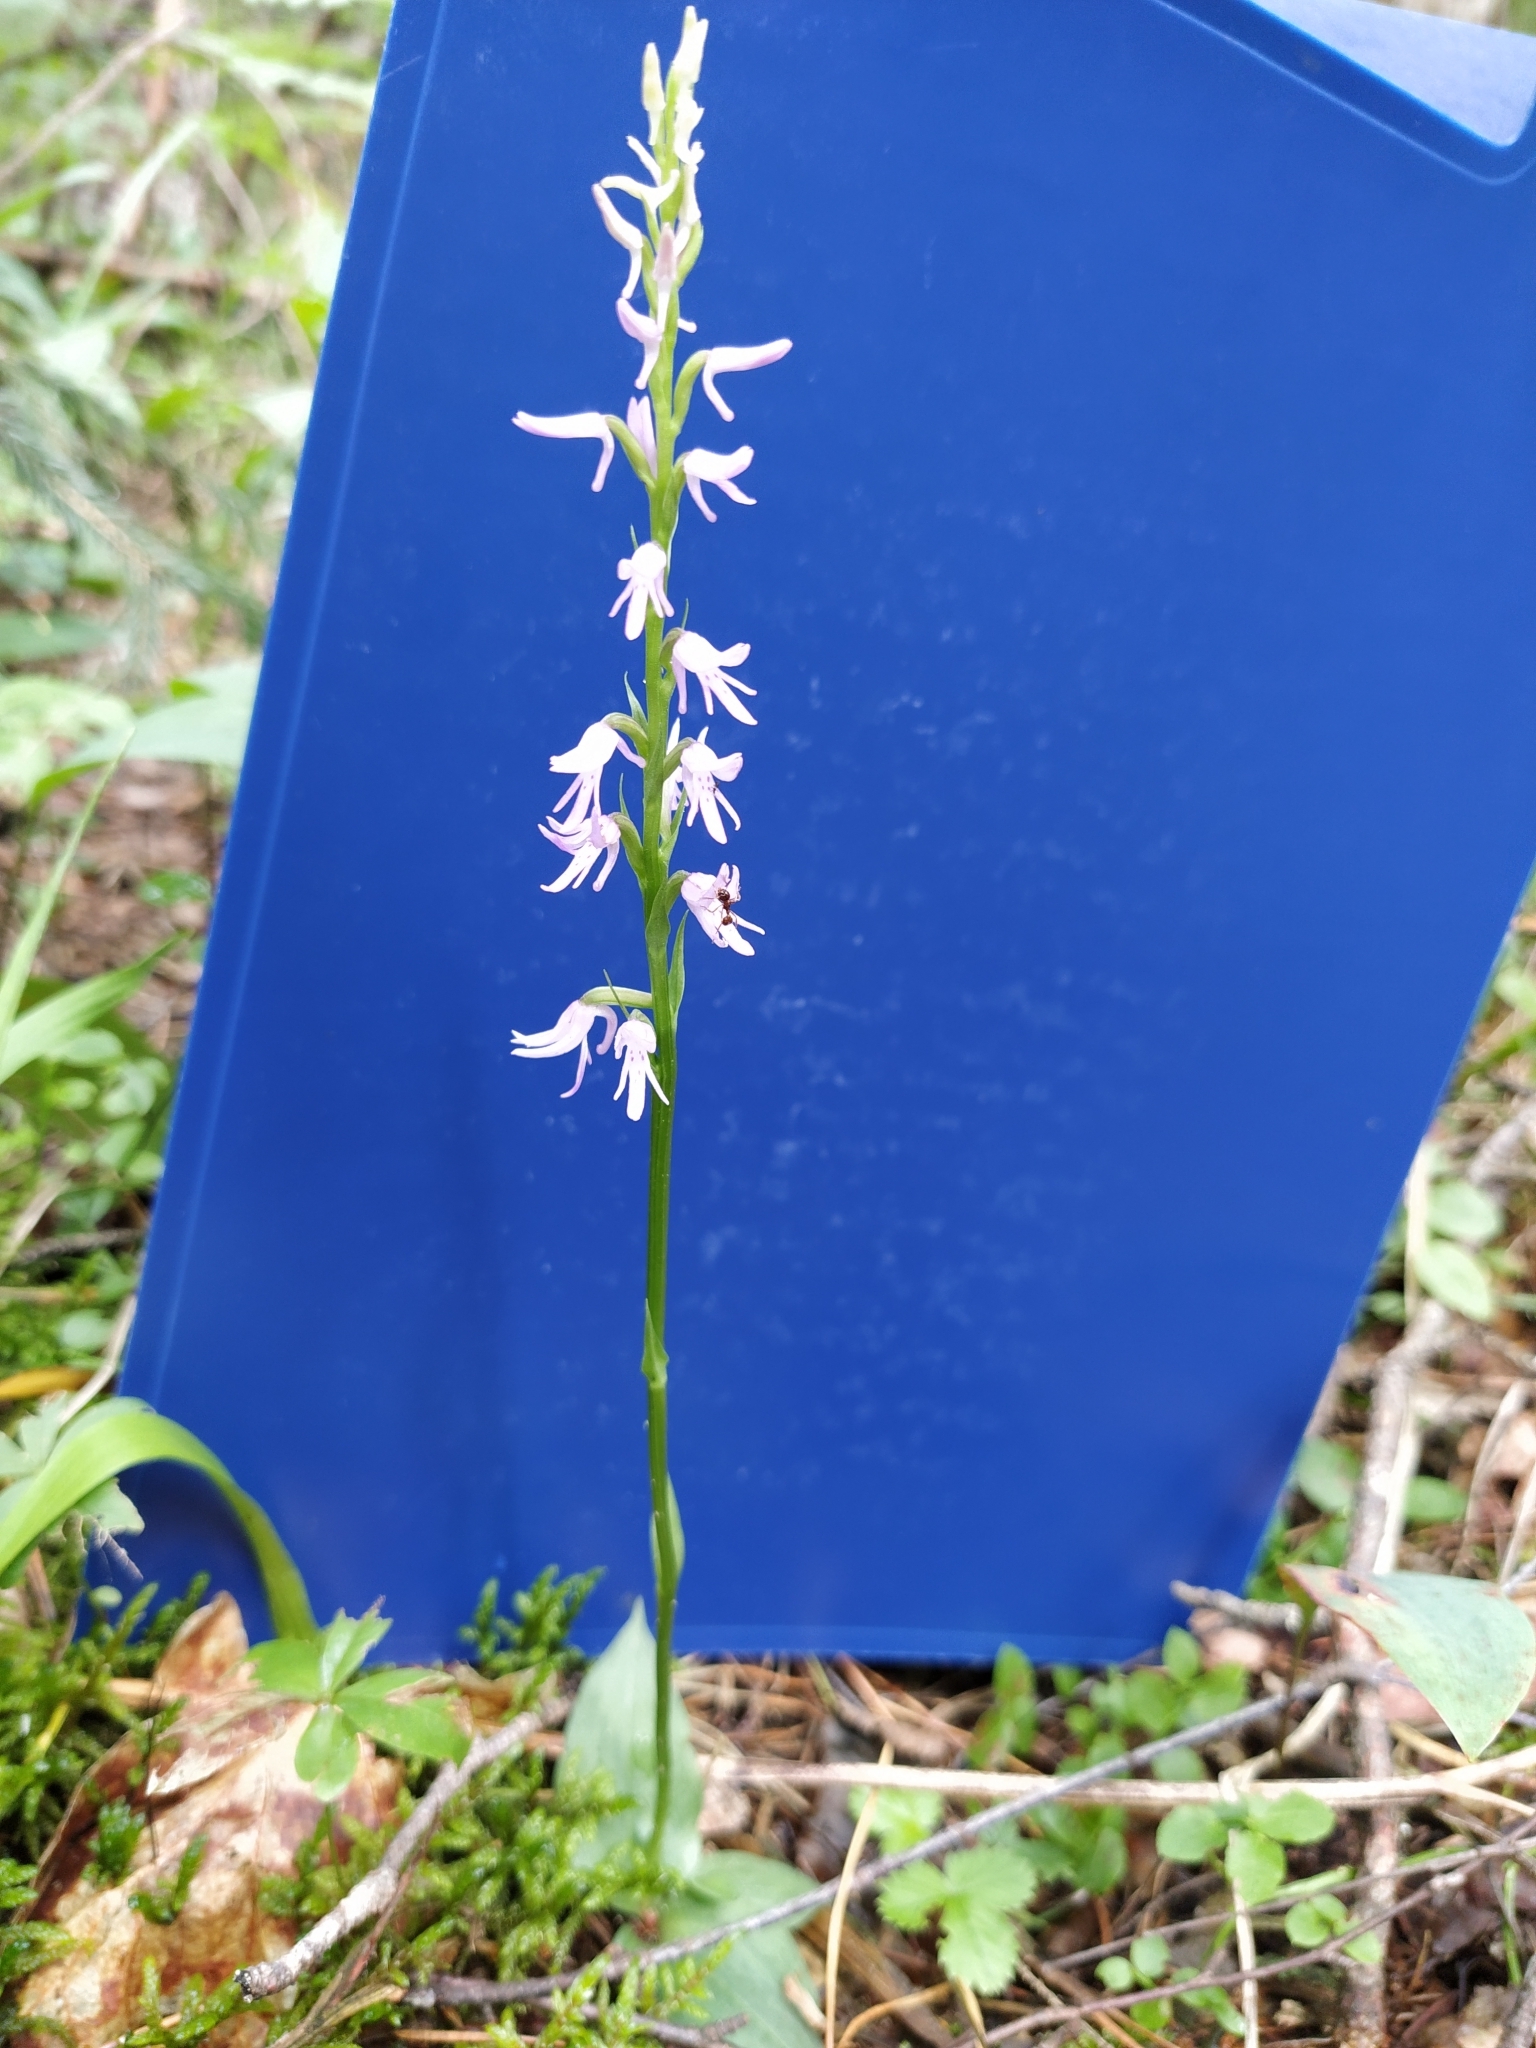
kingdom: Plantae
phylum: Tracheophyta
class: Liliopsida
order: Asparagales
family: Orchidaceae
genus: Hemipilia
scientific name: Hemipilia cucullata
